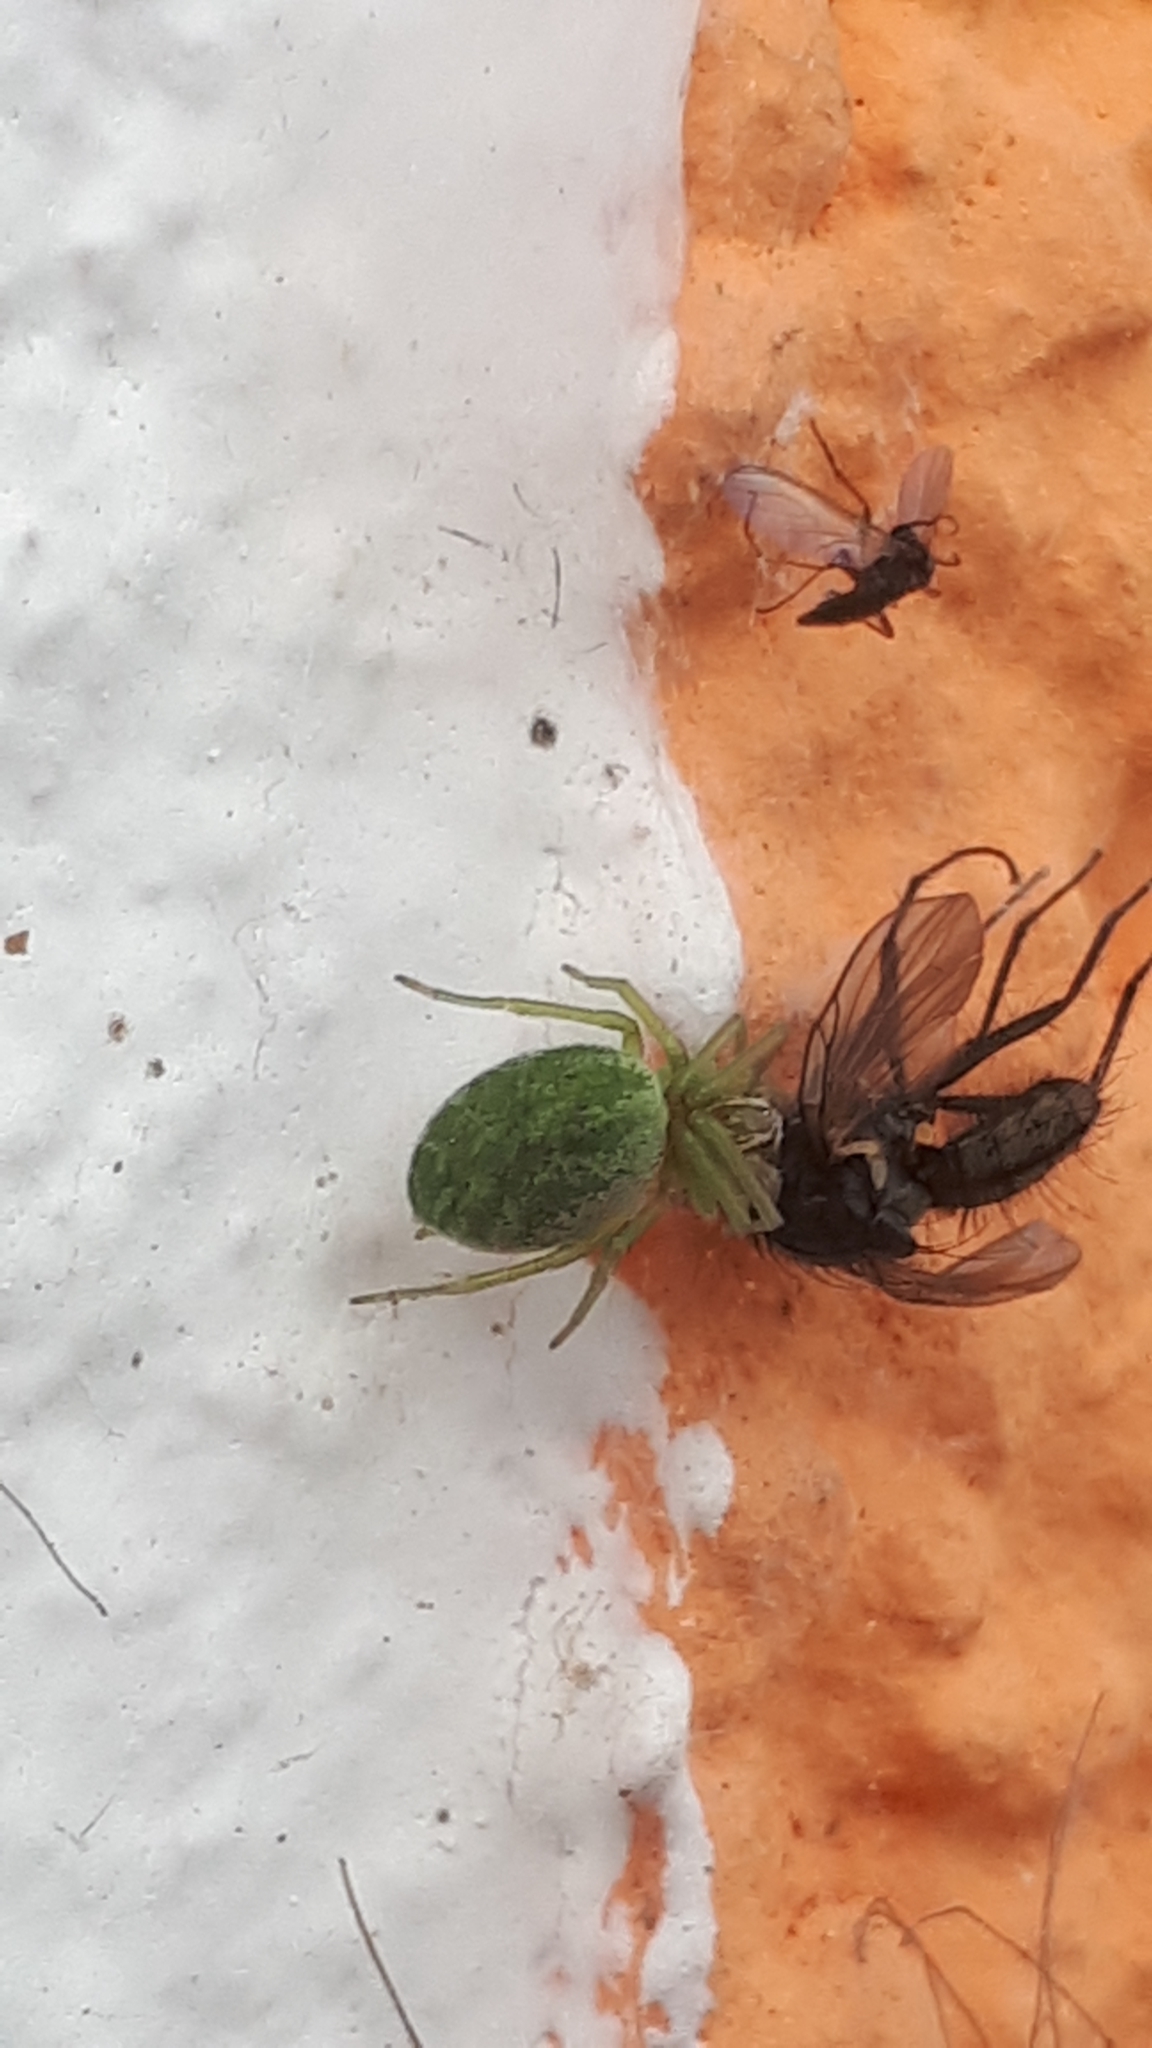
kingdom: Animalia
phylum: Arthropoda
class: Arachnida
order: Araneae
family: Dictynidae
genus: Nigma
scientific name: Nigma walckenaeri
